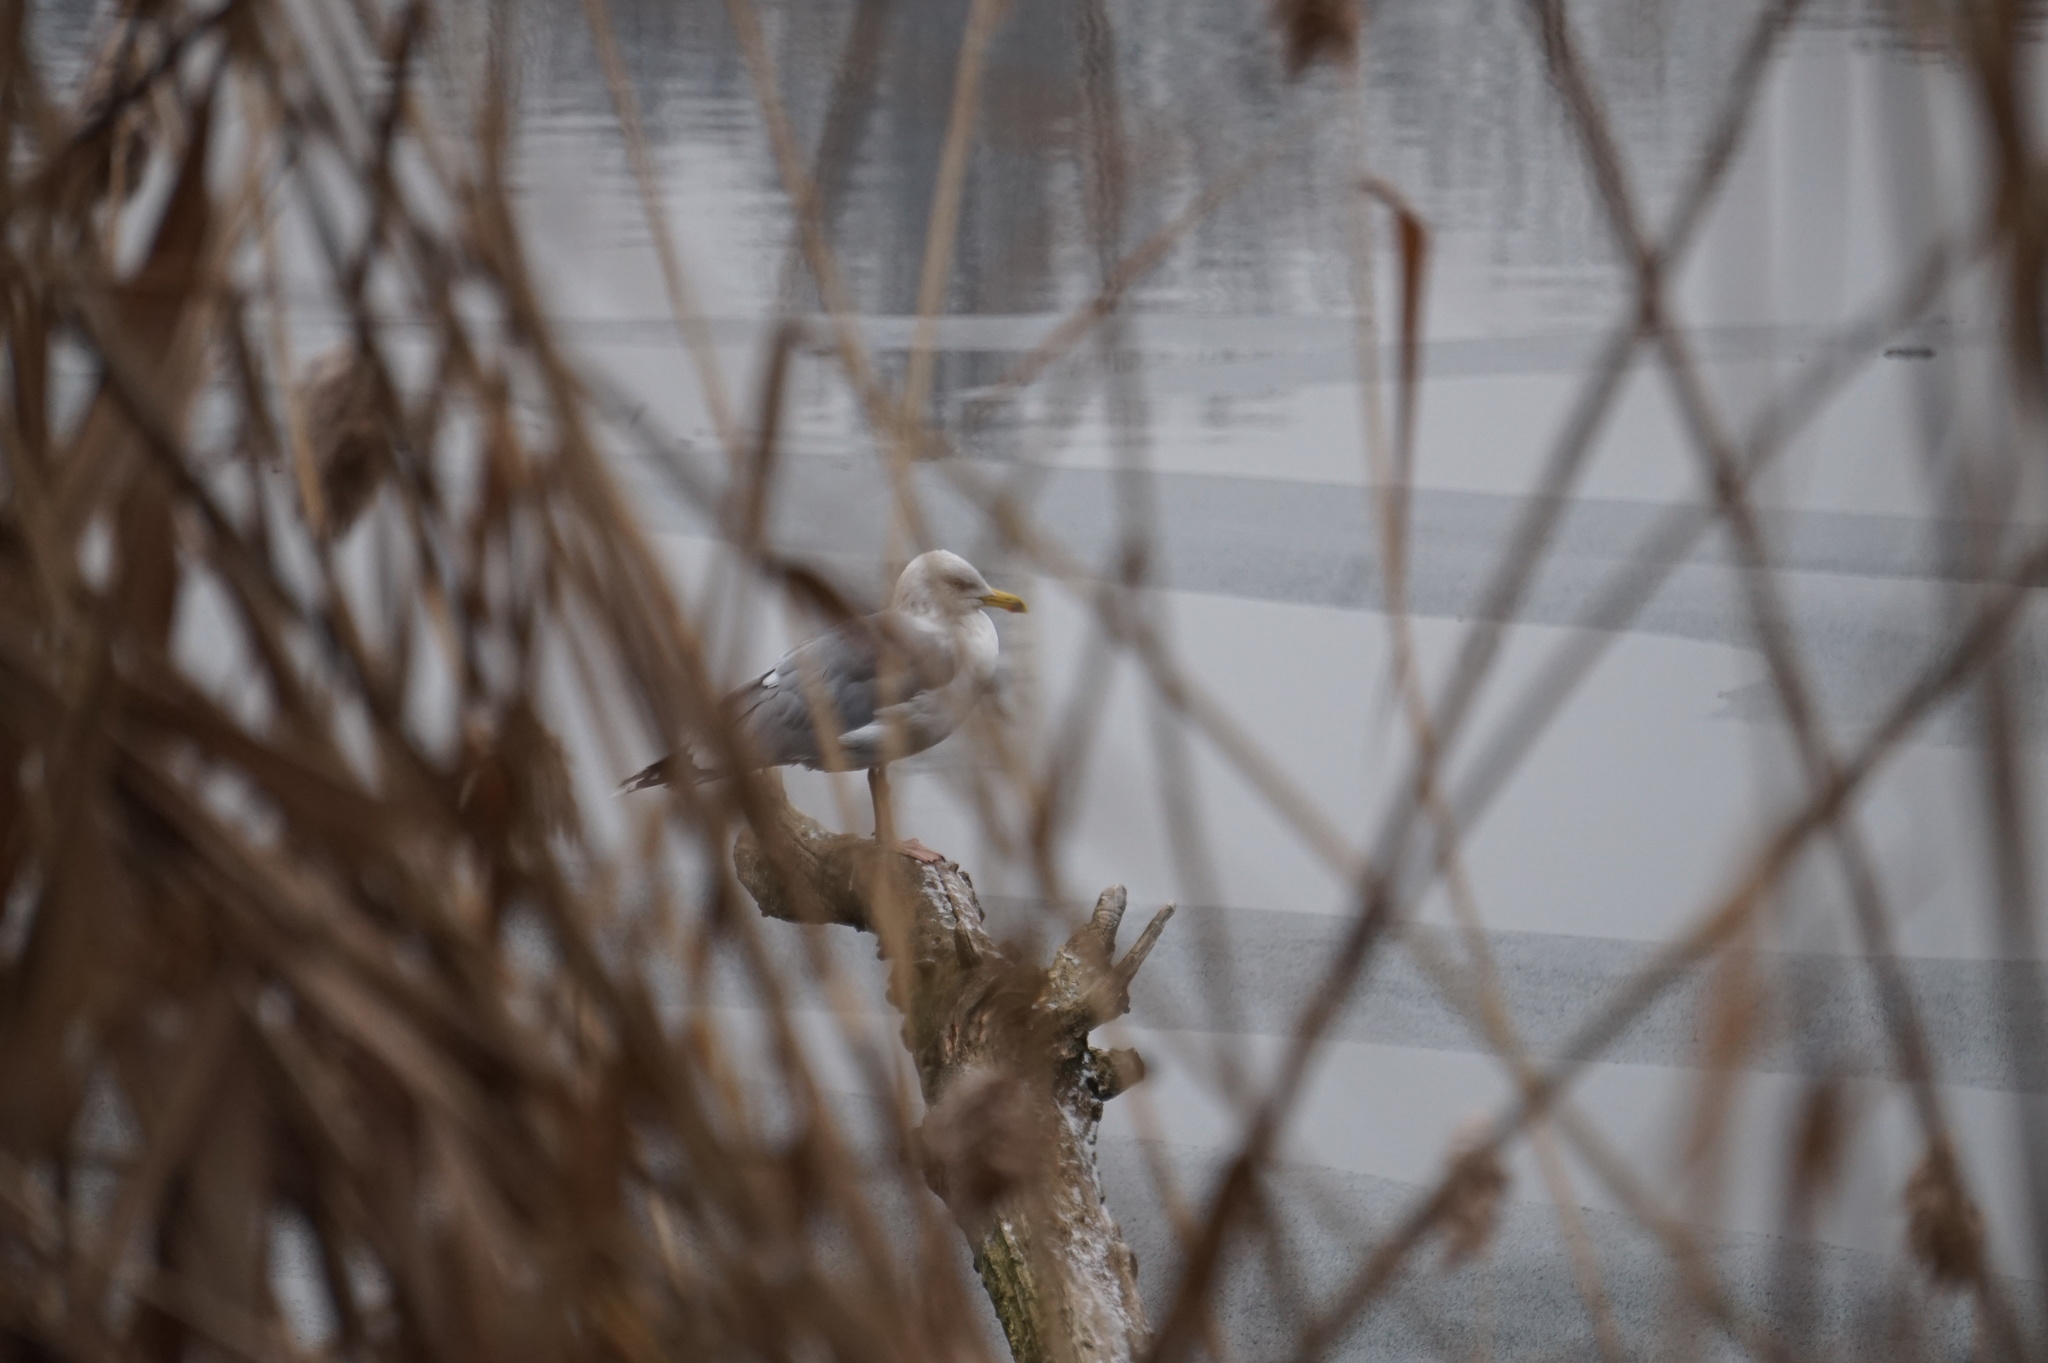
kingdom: Animalia
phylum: Chordata
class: Aves
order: Charadriiformes
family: Laridae
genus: Larus
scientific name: Larus argentatus
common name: Herring gull
